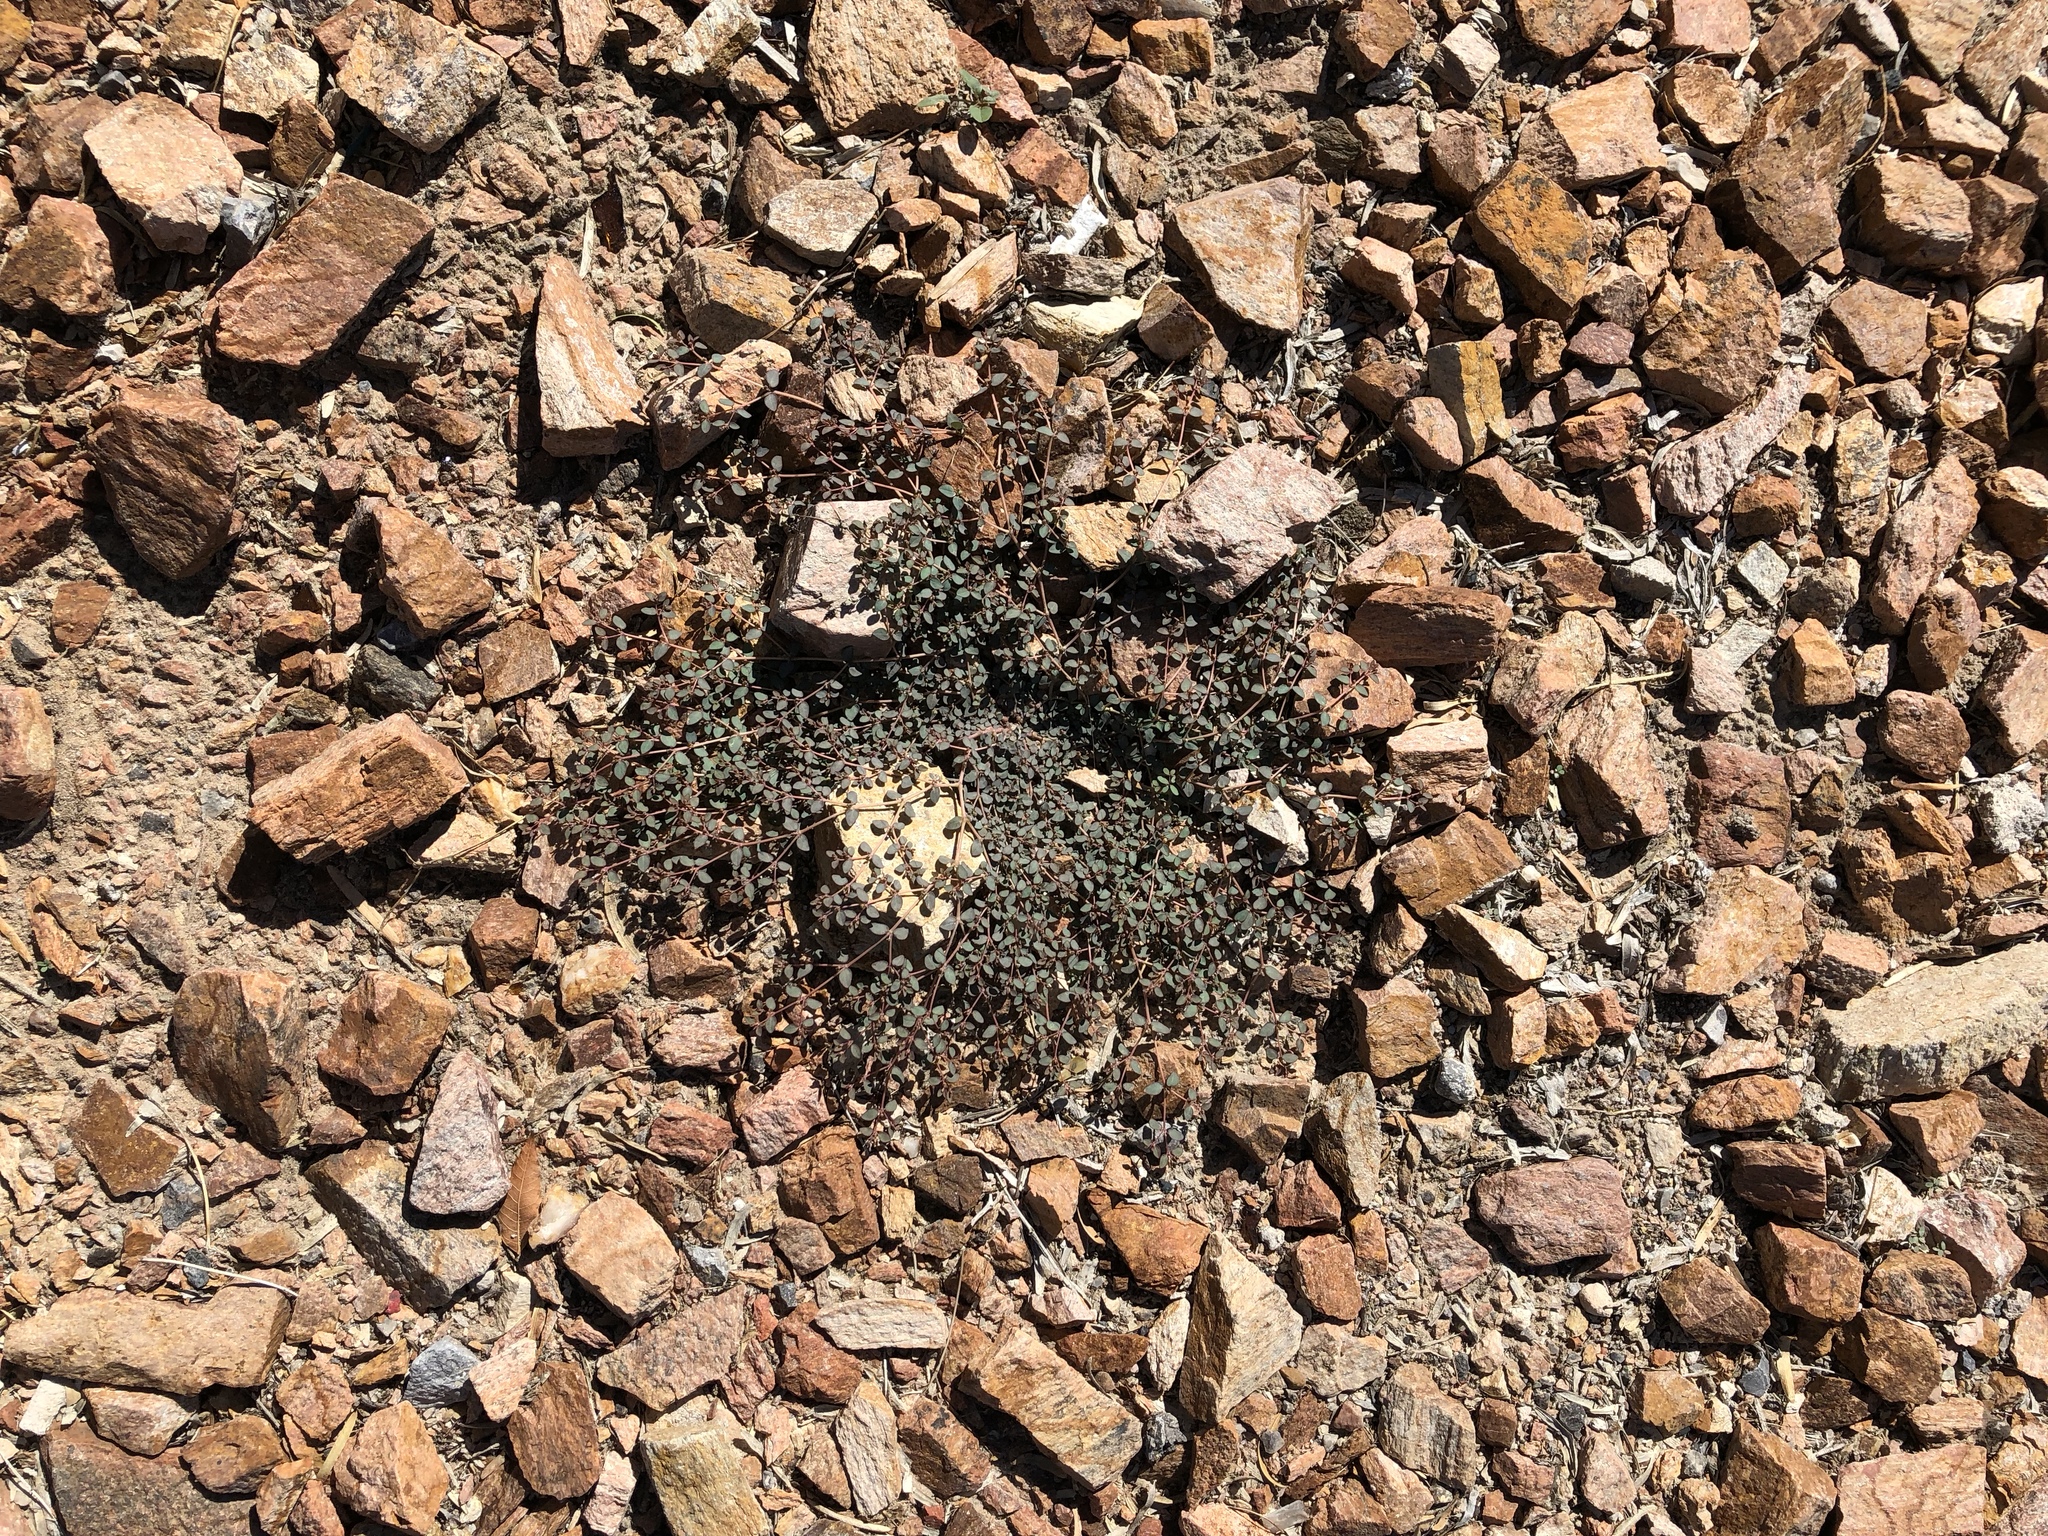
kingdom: Plantae
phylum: Tracheophyta
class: Magnoliopsida
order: Malpighiales
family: Euphorbiaceae
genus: Euphorbia
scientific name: Euphorbia micromera
